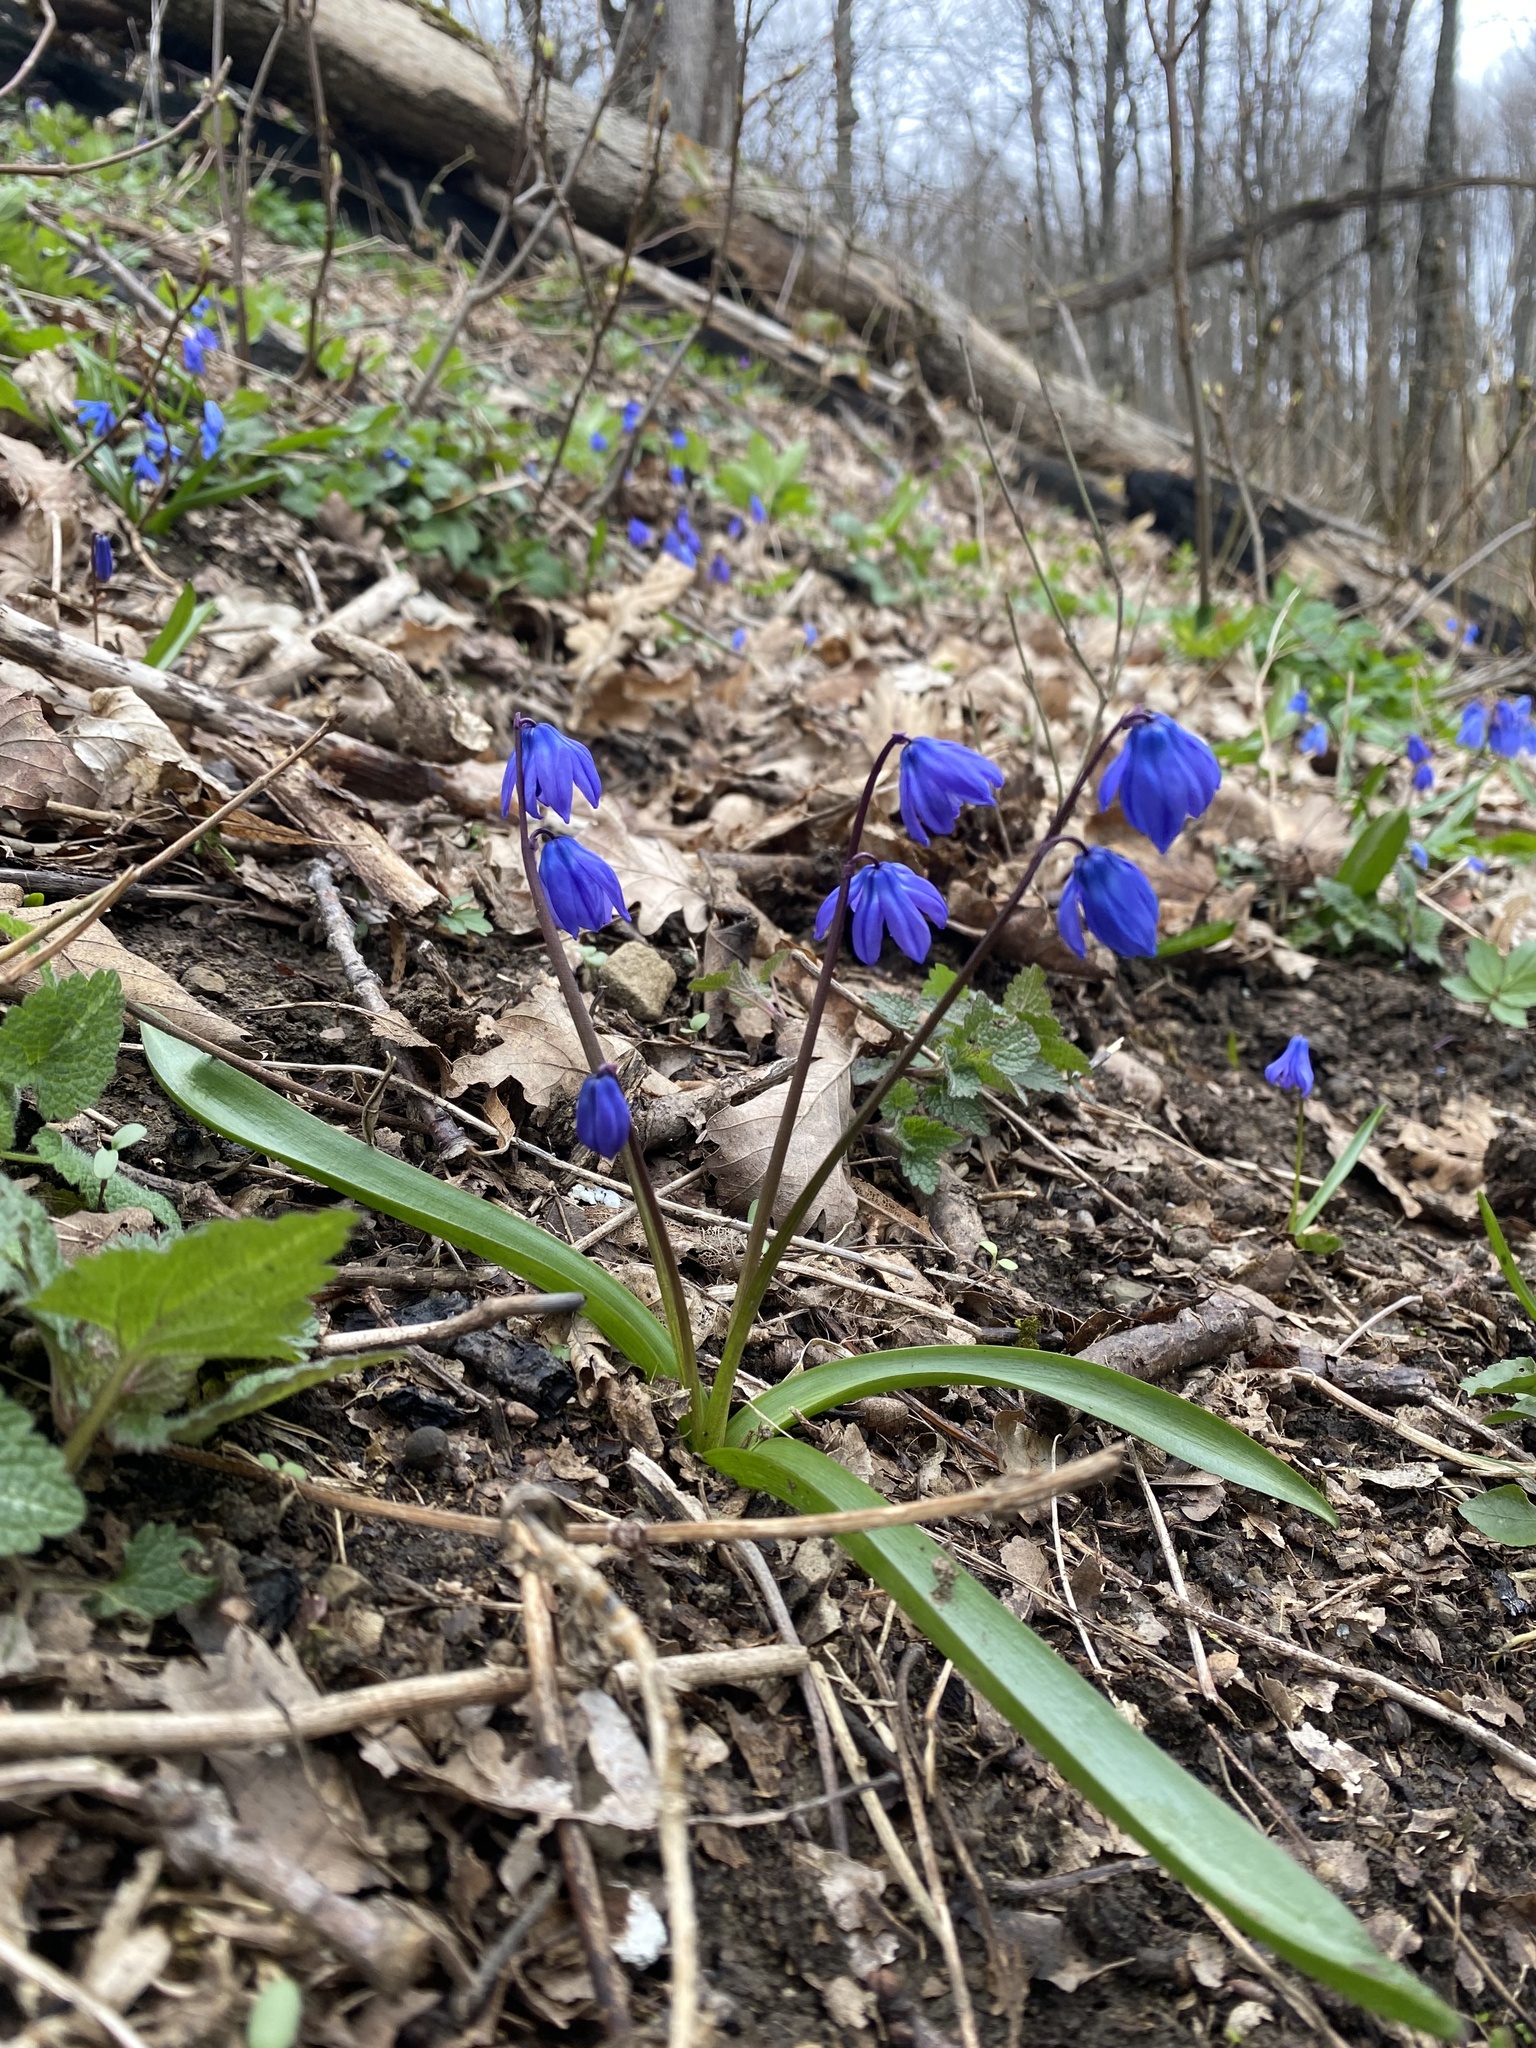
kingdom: Plantae
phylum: Tracheophyta
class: Liliopsida
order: Asparagales
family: Asparagaceae
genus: Scilla
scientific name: Scilla siberica
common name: Siberian squill
